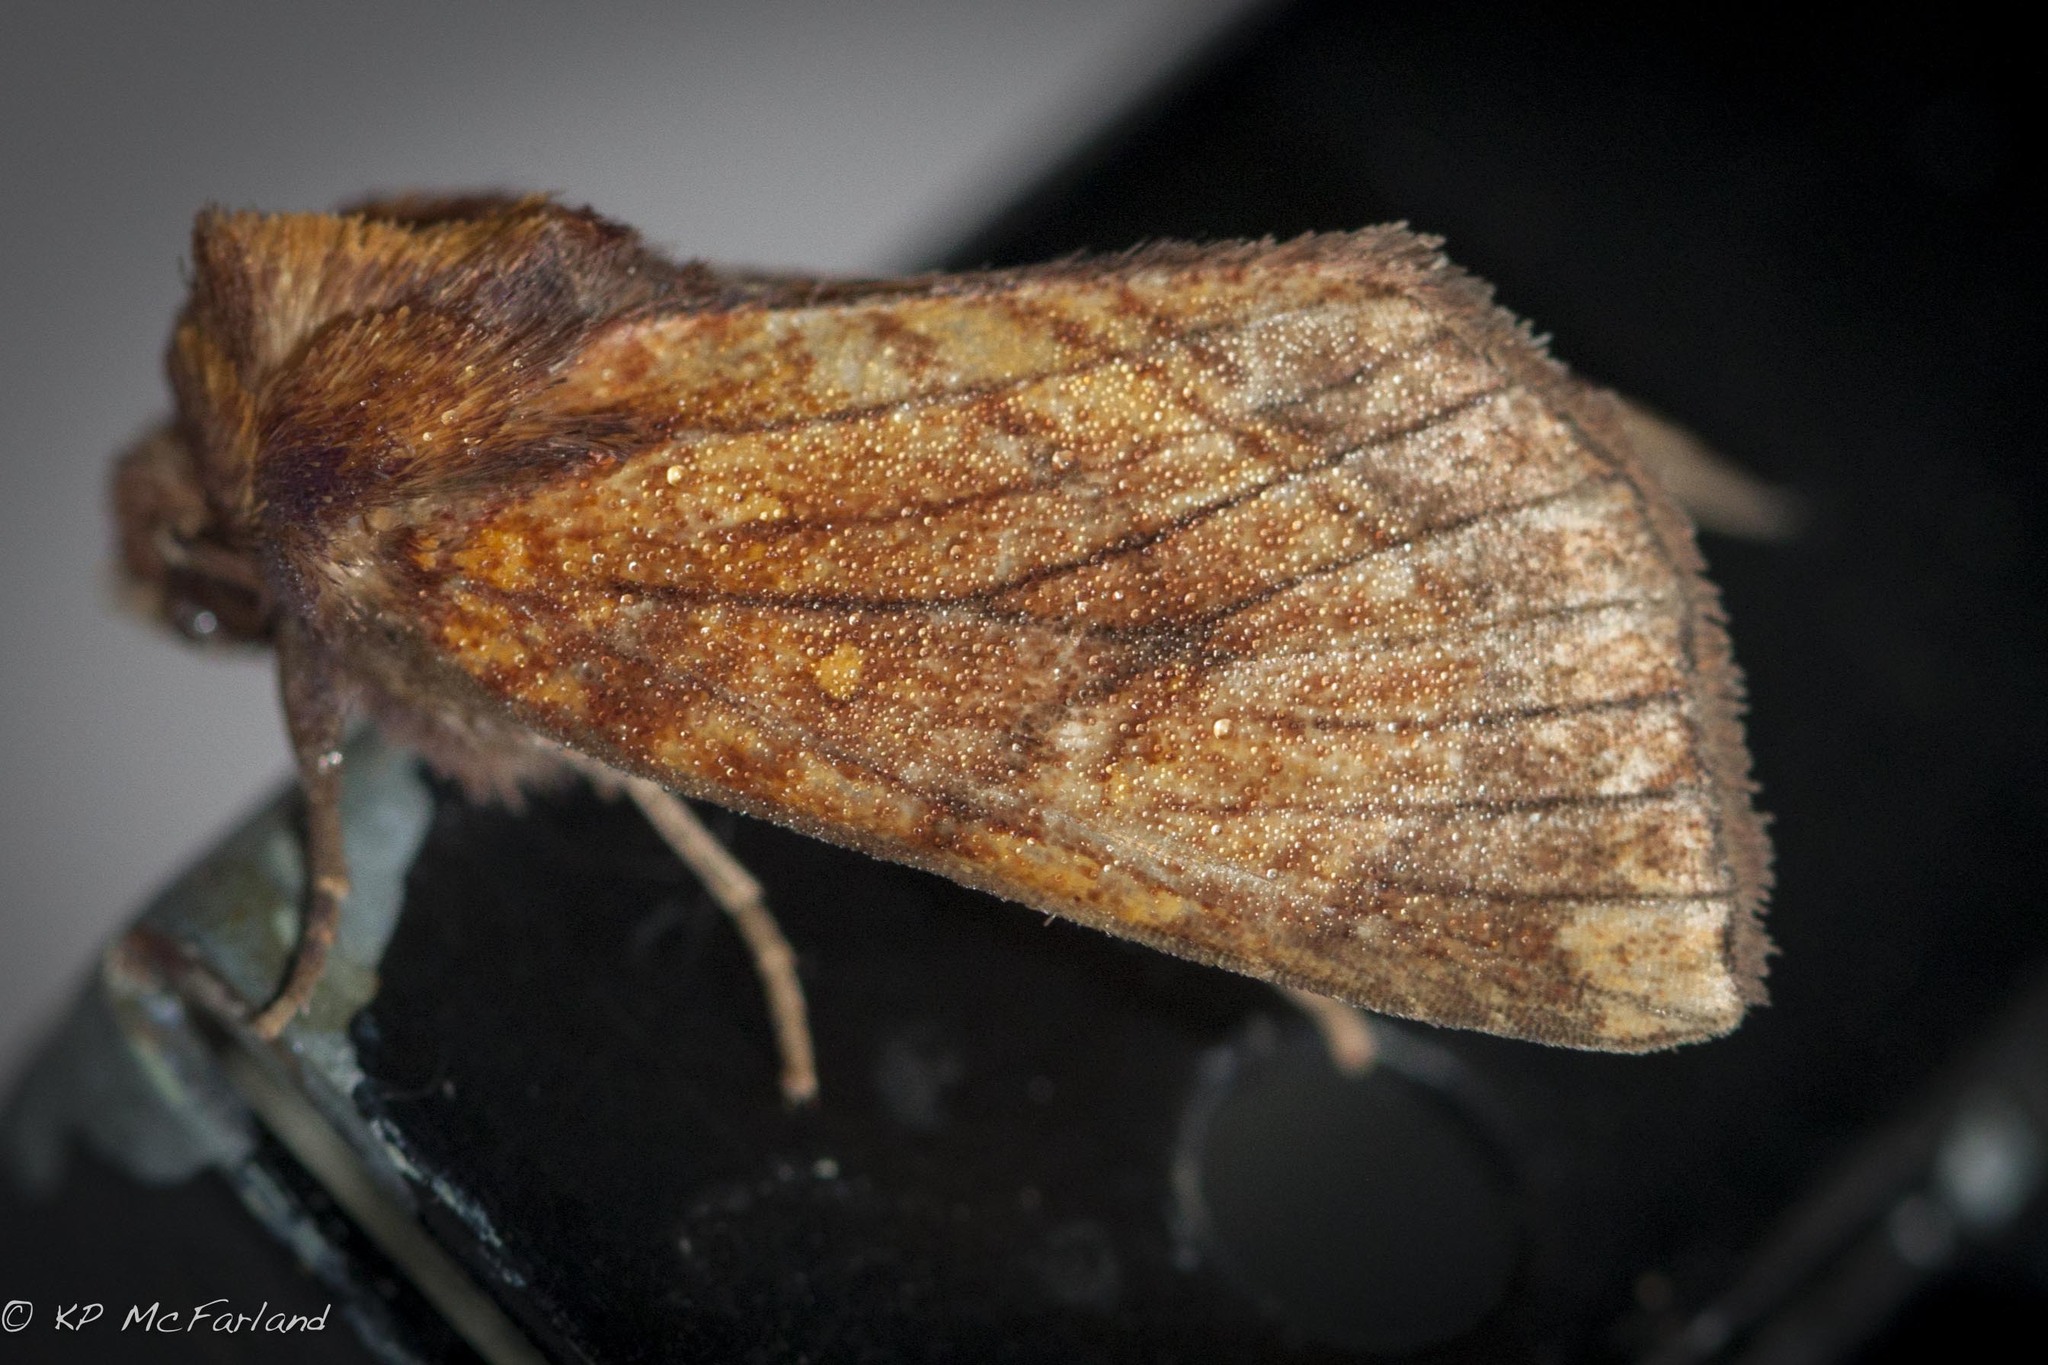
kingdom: Animalia
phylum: Arthropoda
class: Insecta
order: Lepidoptera
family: Noctuidae
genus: Papaipema
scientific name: Papaipema inquaesita
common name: Sensitive fern borer moth
